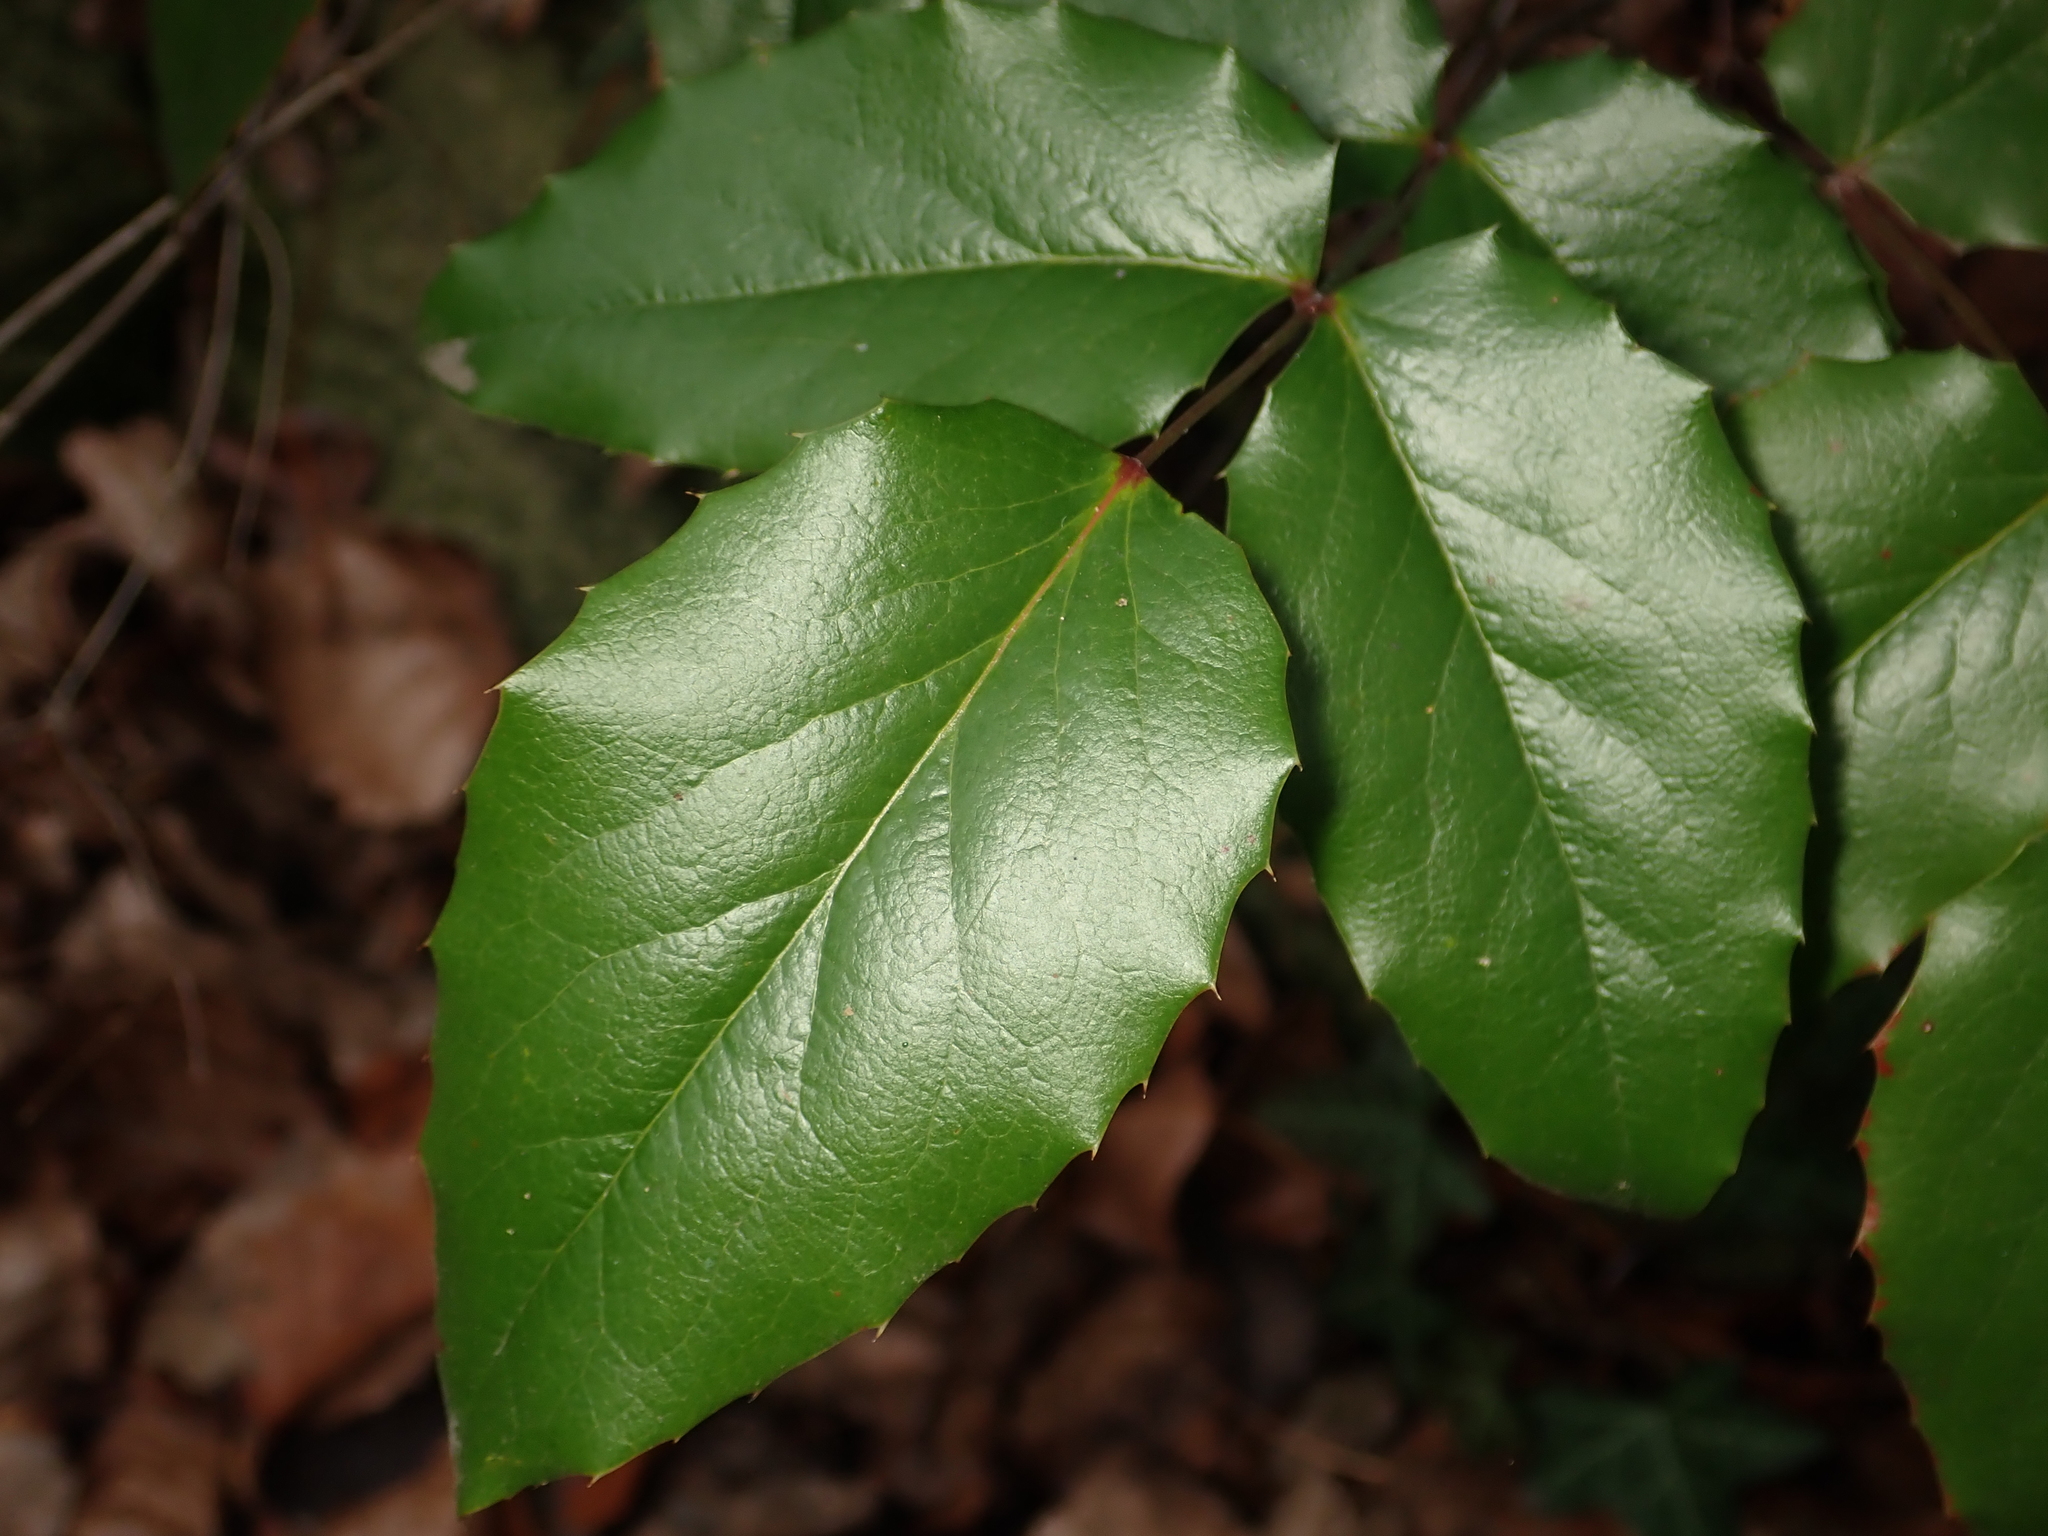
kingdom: Plantae
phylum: Tracheophyta
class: Magnoliopsida
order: Ranunculales
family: Berberidaceae
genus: Mahonia
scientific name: Mahonia aquifolium
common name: Oregon-grape
